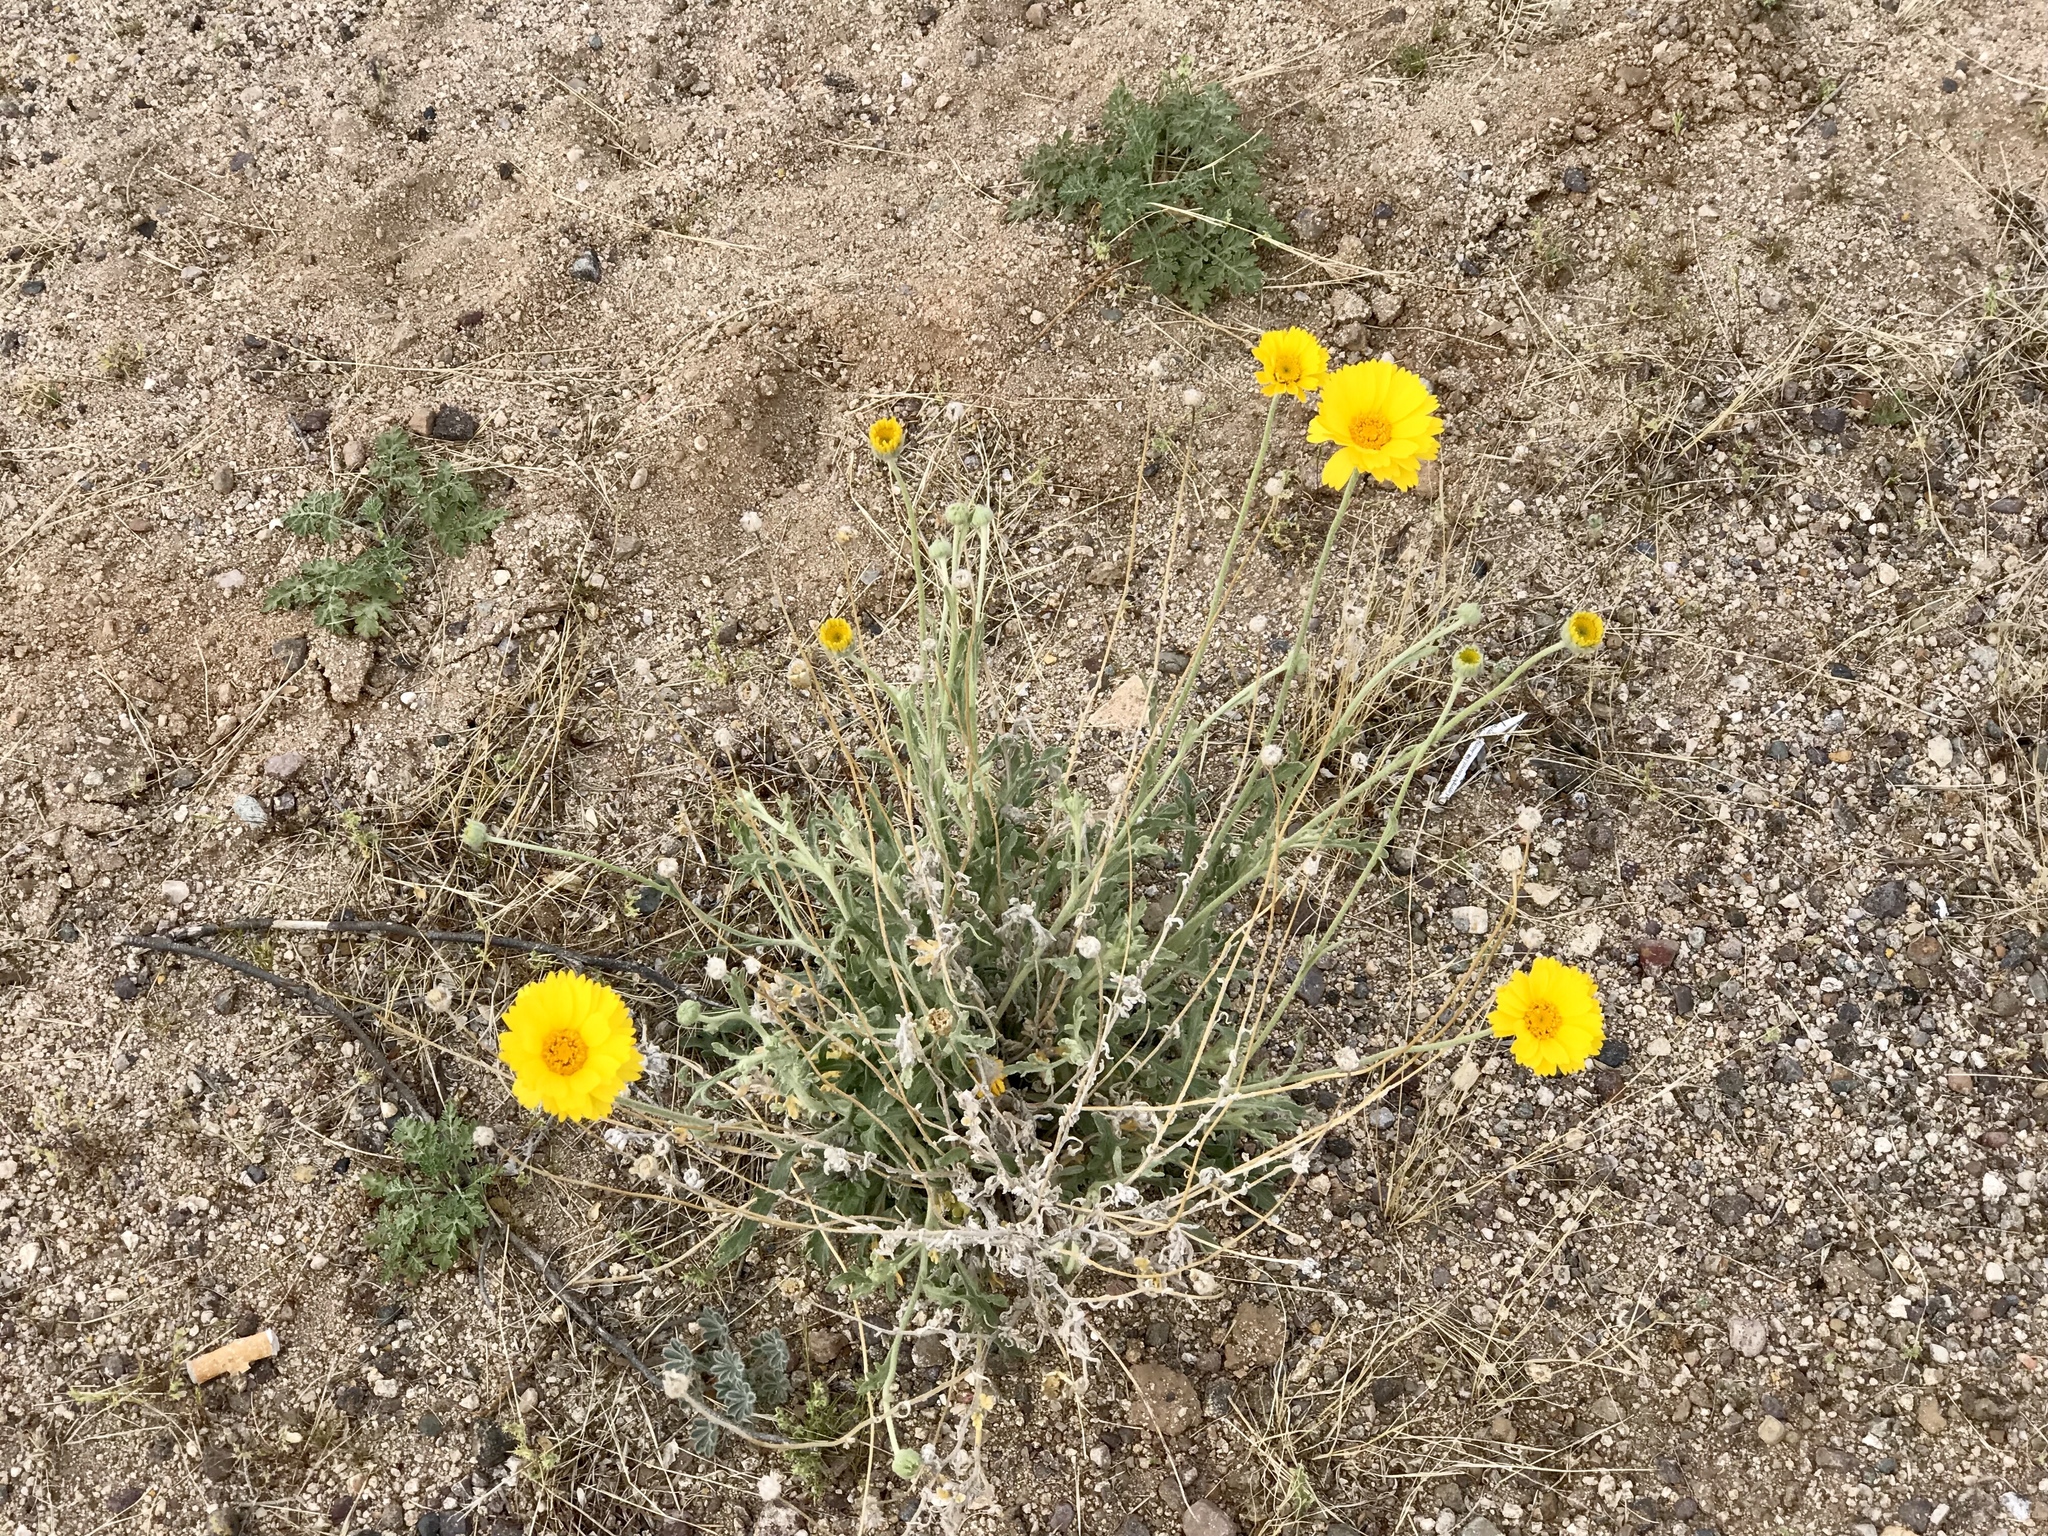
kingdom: Plantae
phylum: Tracheophyta
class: Magnoliopsida
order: Asterales
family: Asteraceae
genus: Baileya
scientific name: Baileya multiradiata
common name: Desert-marigold
